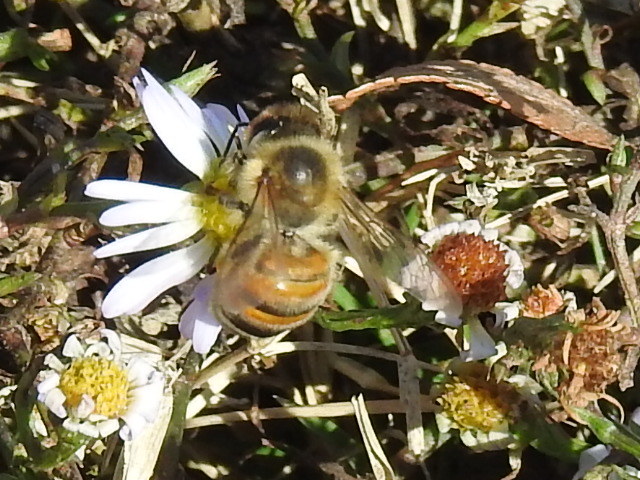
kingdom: Animalia
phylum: Arthropoda
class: Insecta
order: Hymenoptera
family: Apidae
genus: Apis
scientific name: Apis mellifera
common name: Honey bee
